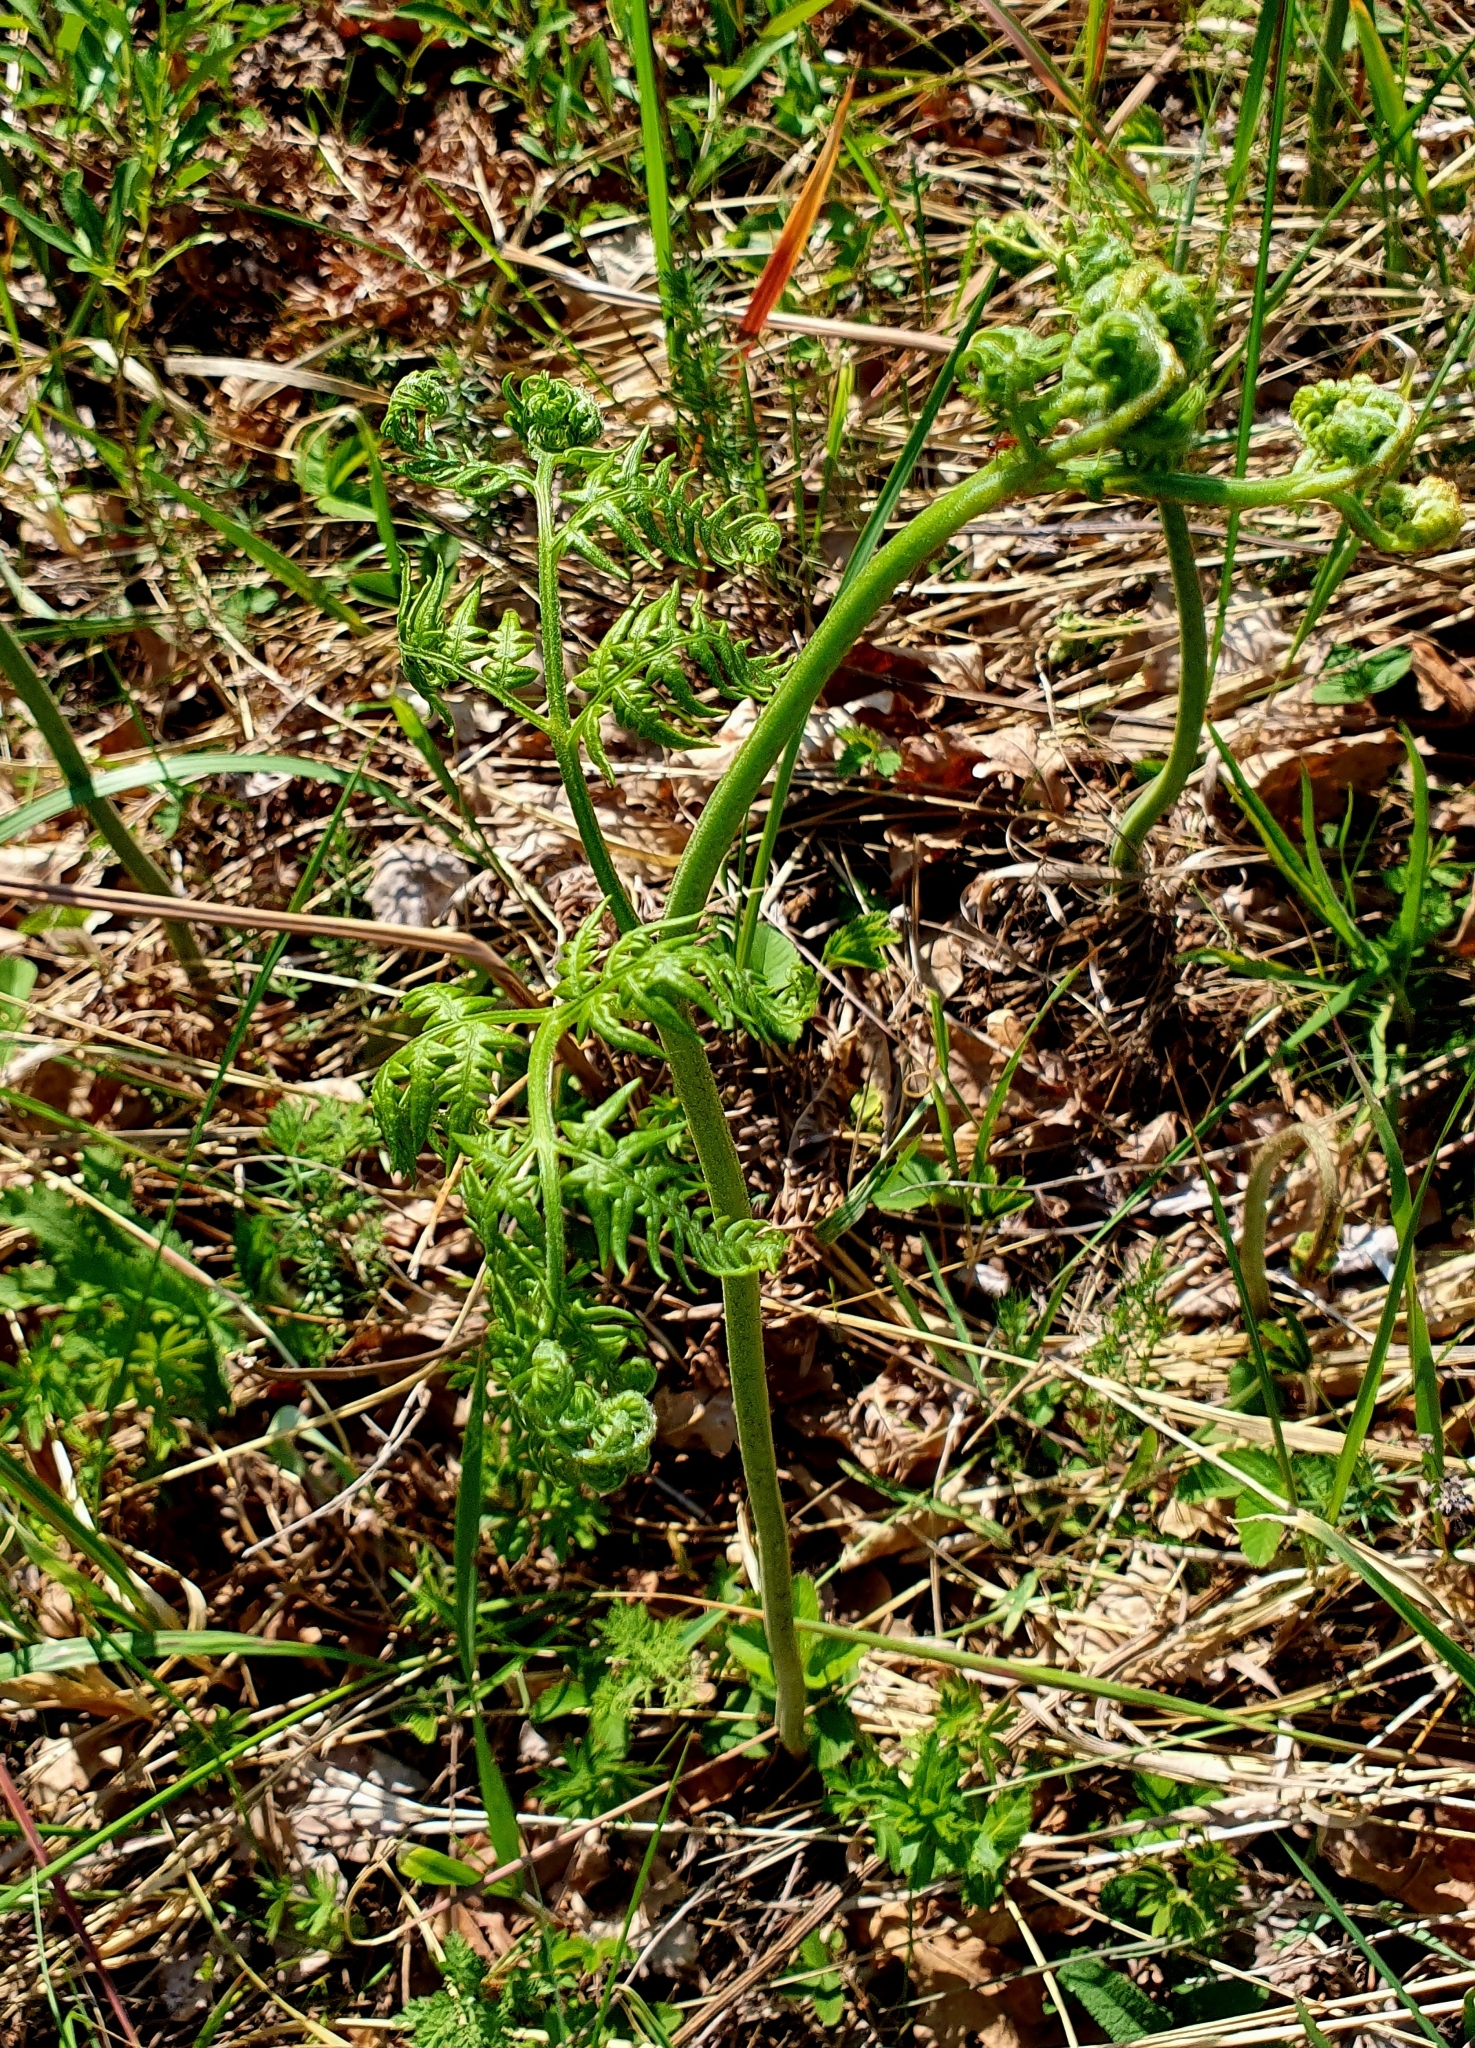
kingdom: Plantae
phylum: Tracheophyta
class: Polypodiopsida
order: Polypodiales
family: Dennstaedtiaceae
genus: Pteridium
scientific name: Pteridium aquilinum
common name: Bracken
